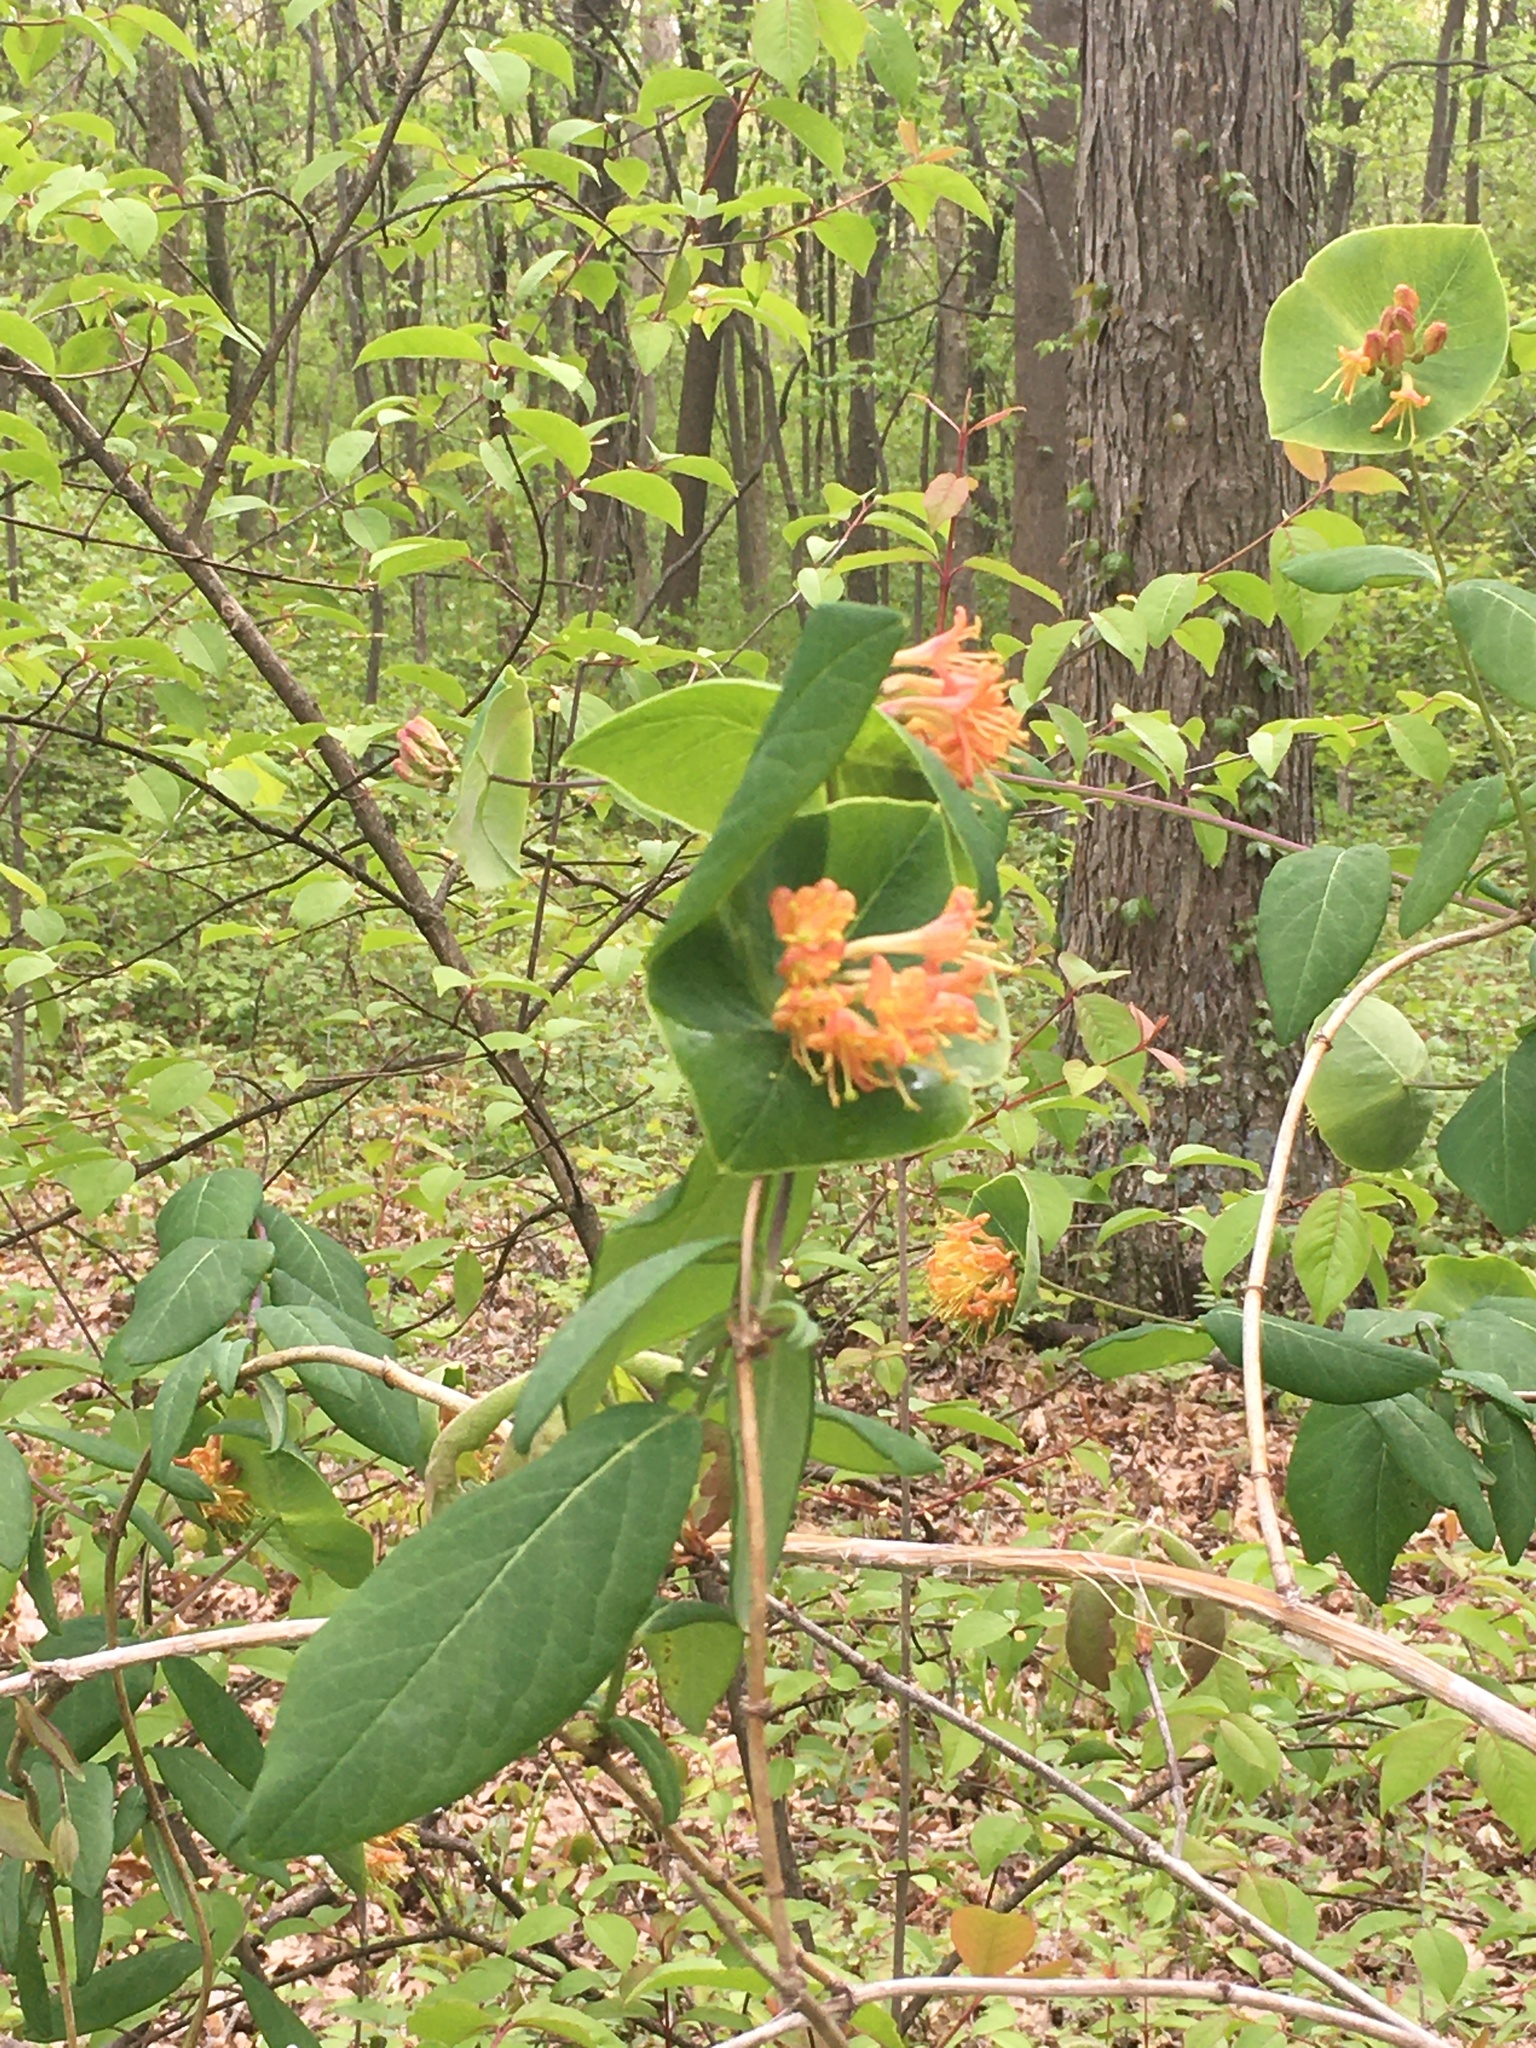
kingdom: Plantae
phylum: Tracheophyta
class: Magnoliopsida
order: Dipsacales
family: Caprifoliaceae
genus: Lonicera
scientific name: Lonicera dioica
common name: Limber honeysuckle
